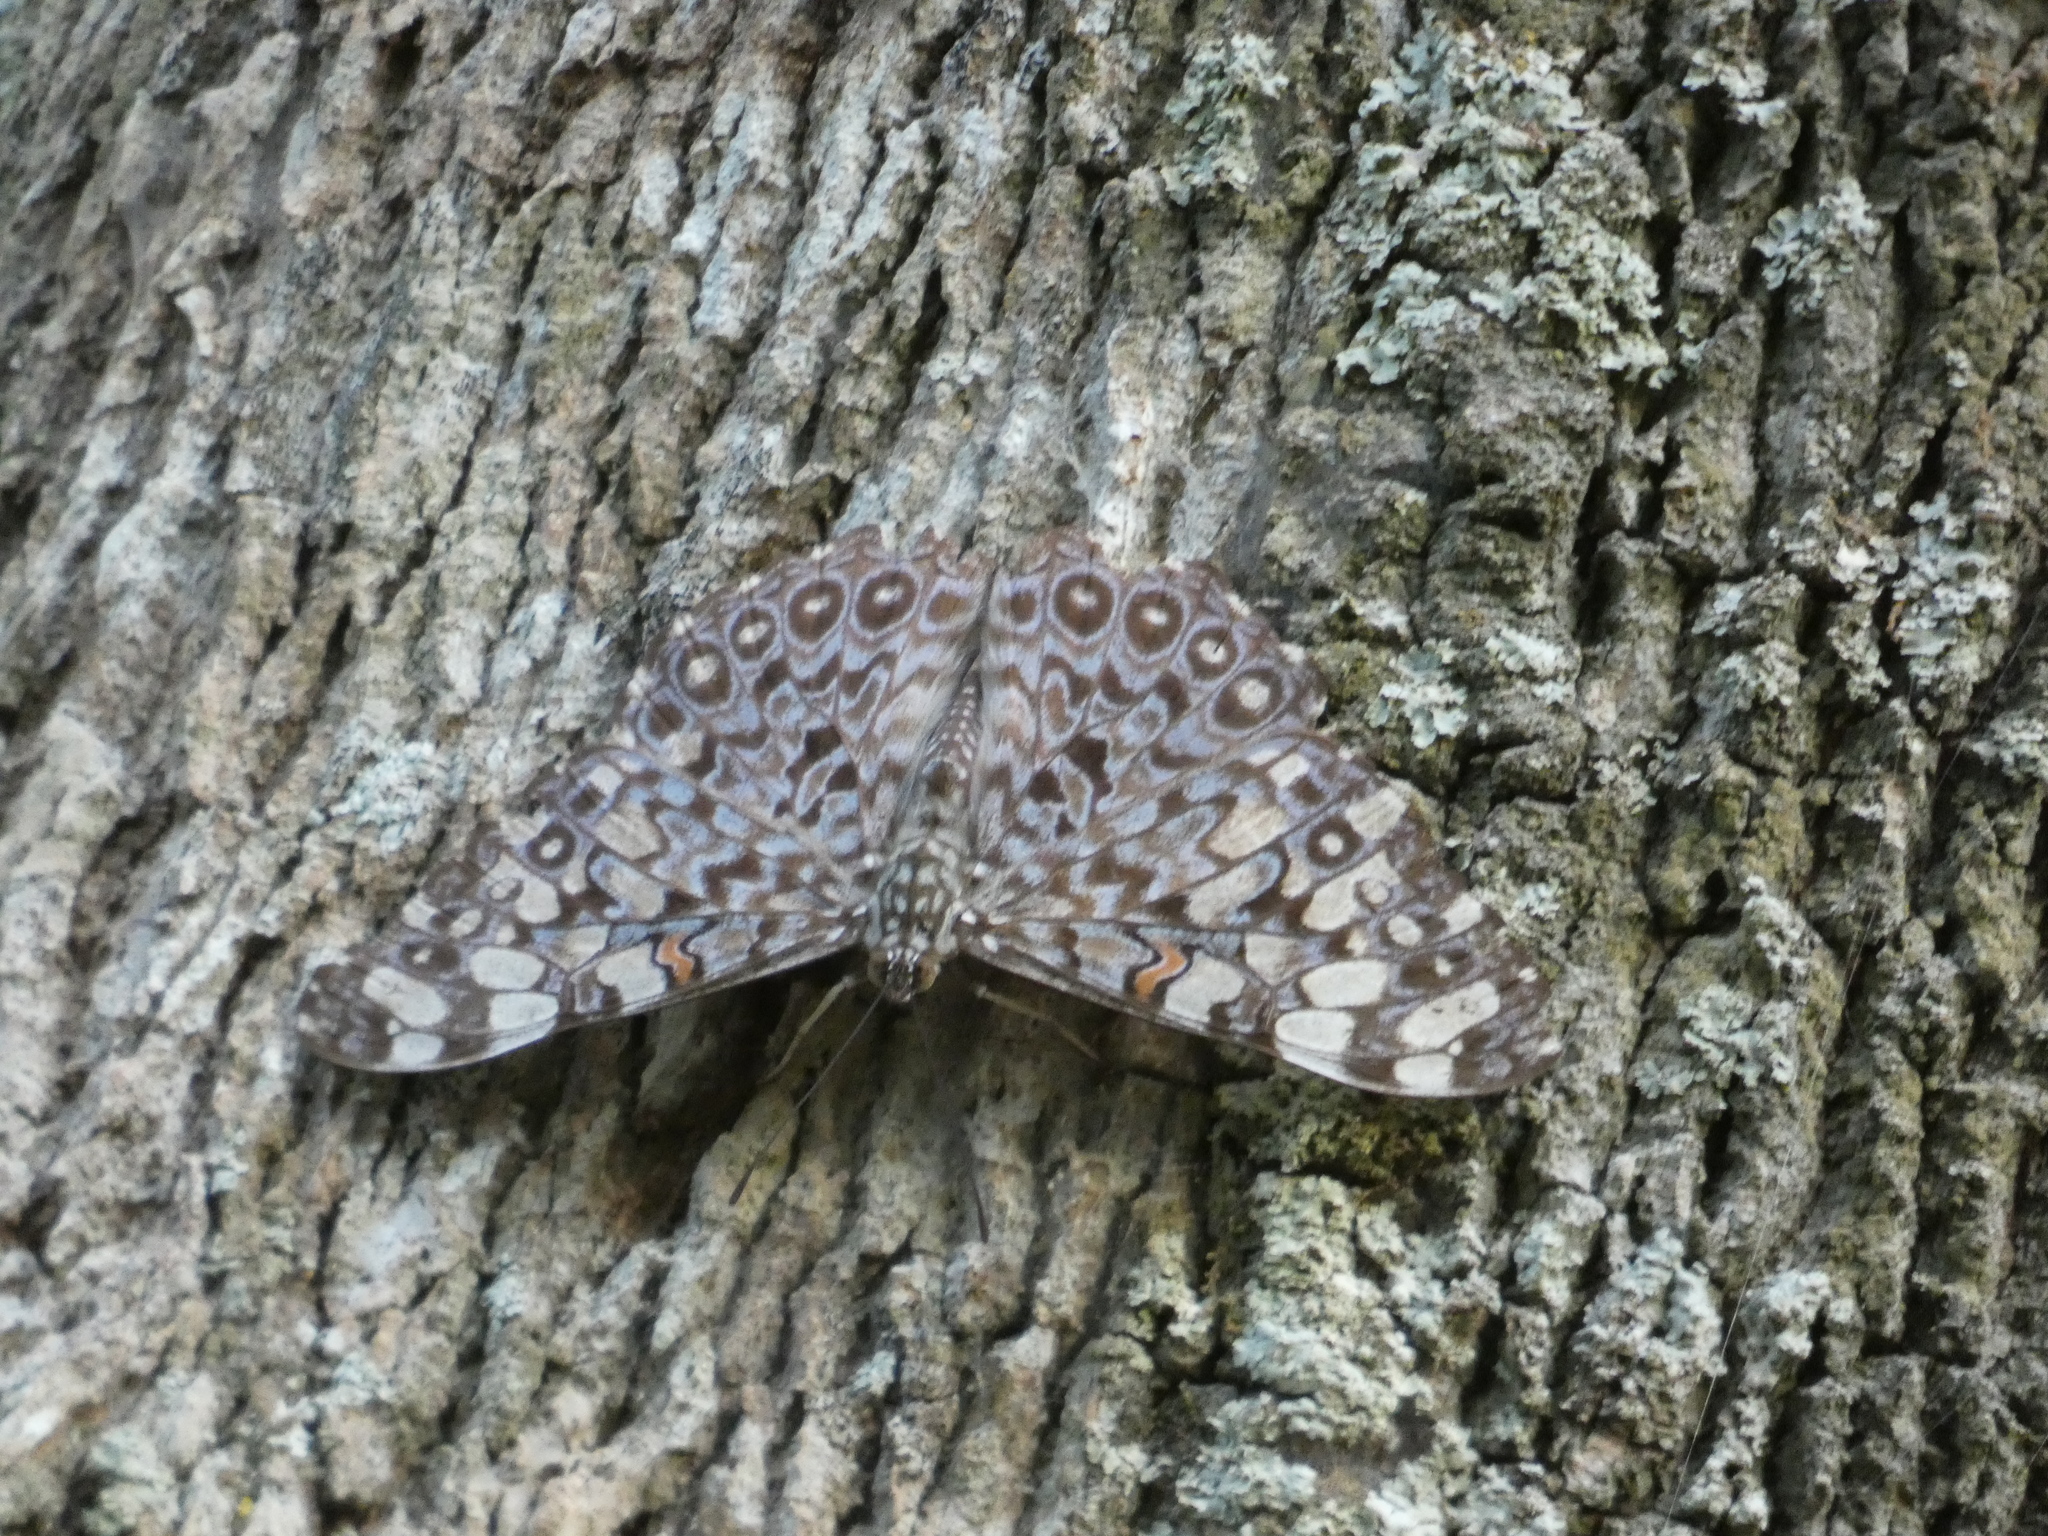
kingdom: Animalia
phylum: Arthropoda
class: Insecta
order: Lepidoptera
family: Nymphalidae
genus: Hamadryas
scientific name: Hamadryas feronia
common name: Variable cracker
